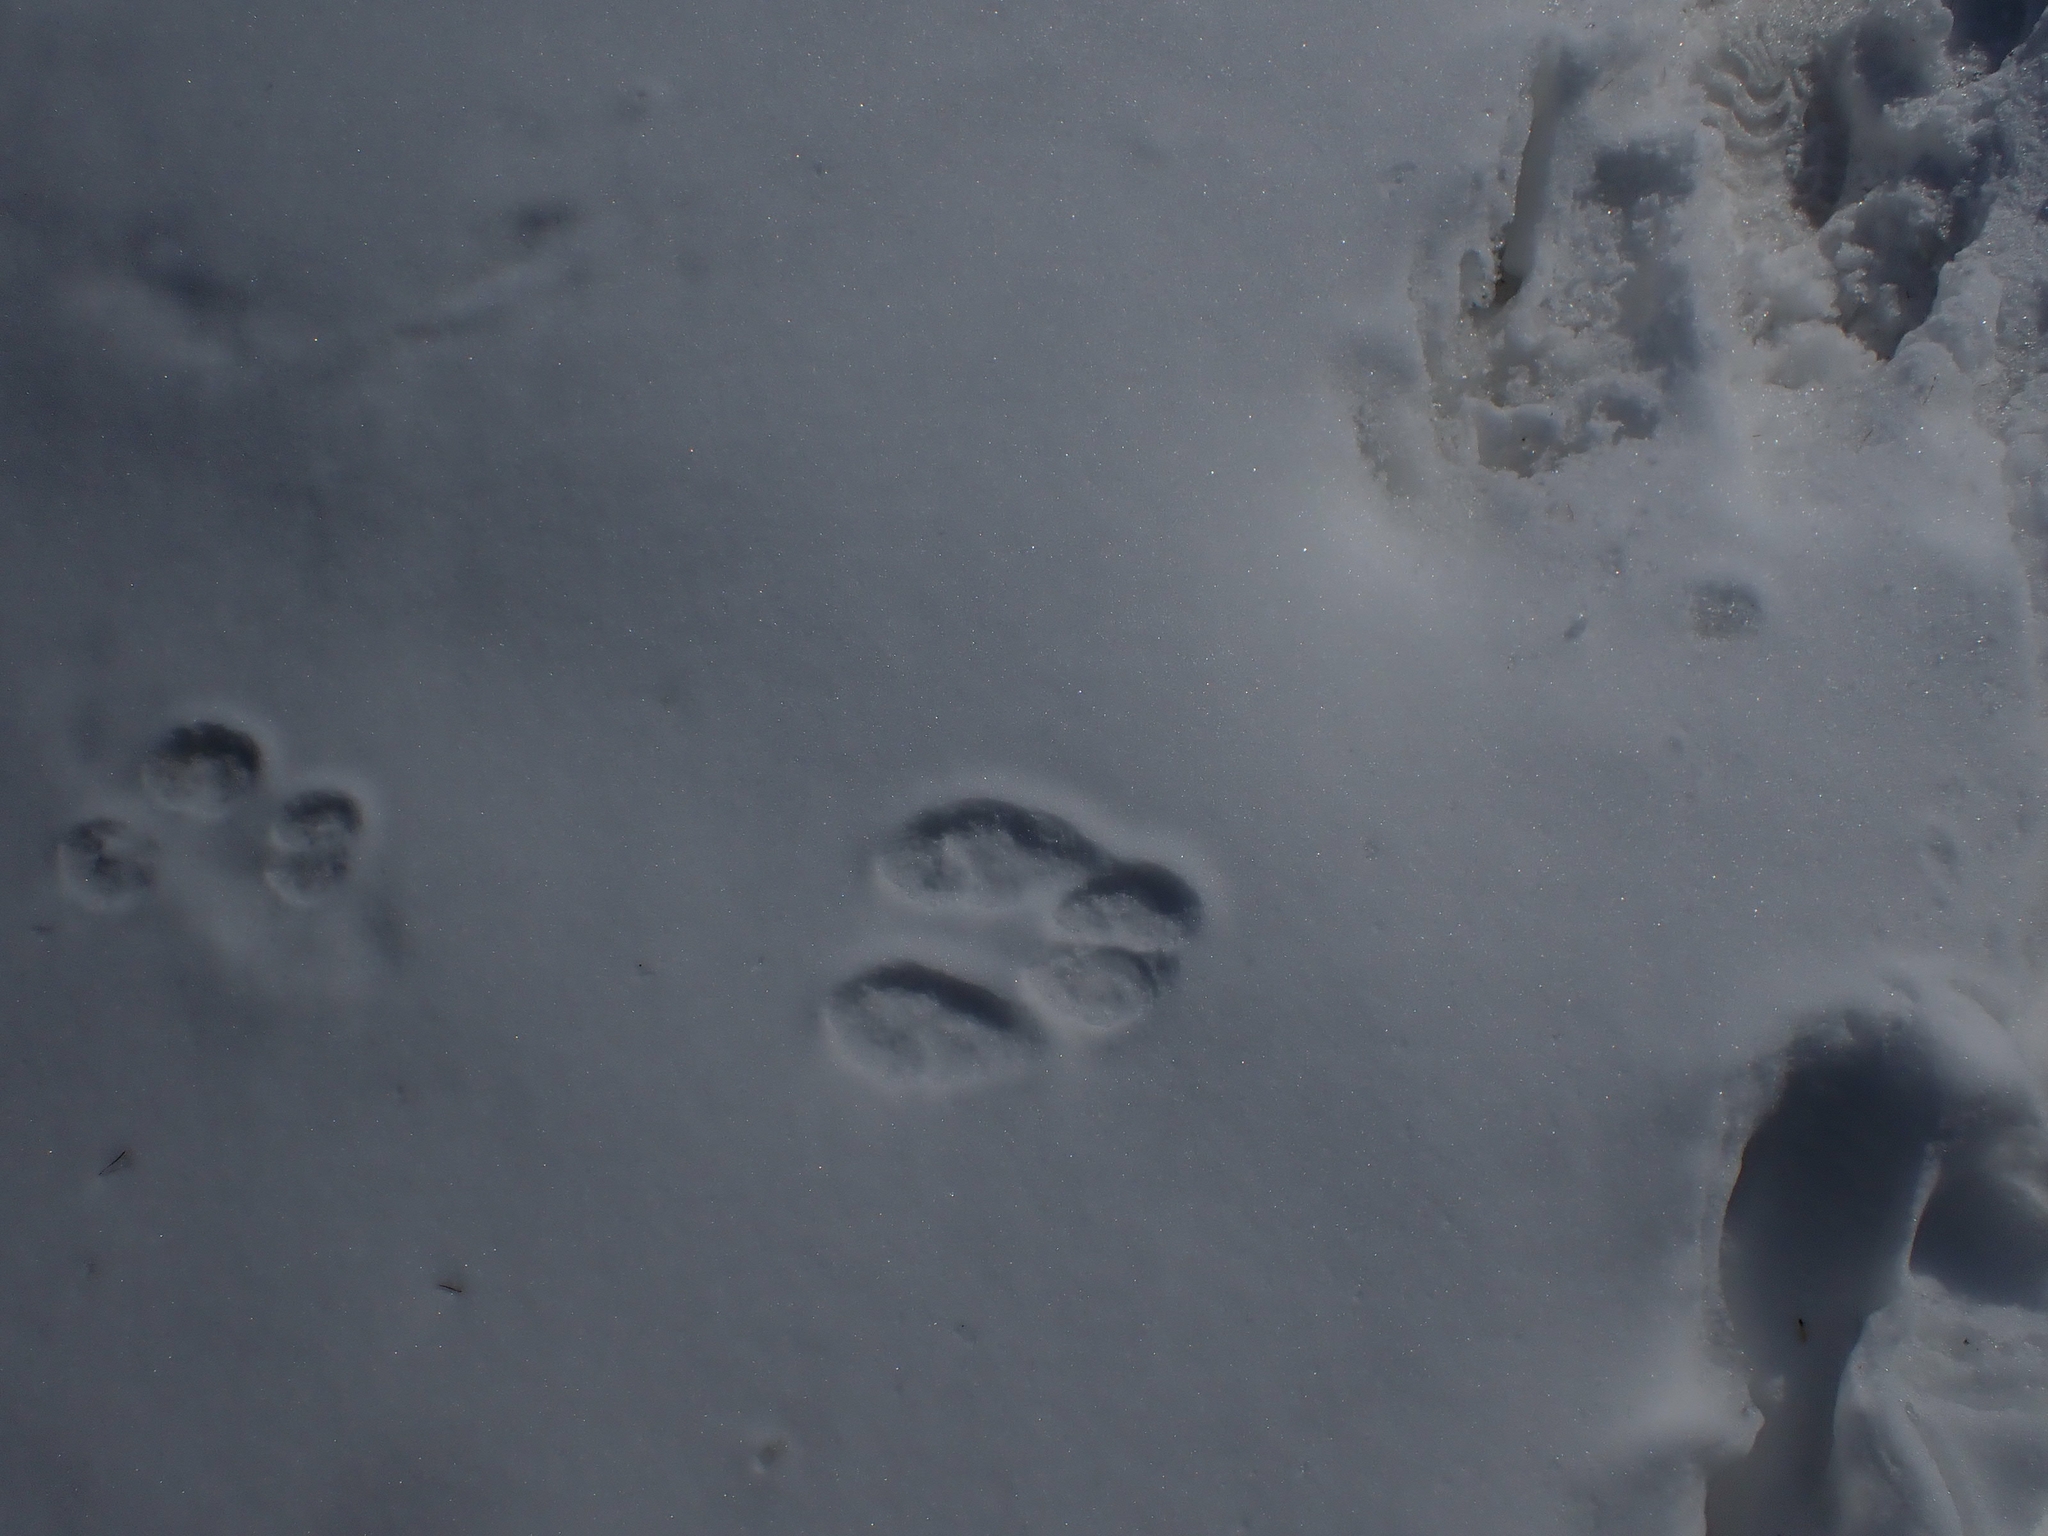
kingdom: Animalia
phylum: Chordata
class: Mammalia
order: Lagomorpha
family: Leporidae
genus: Lepus
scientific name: Lepus americanus
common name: Snowshoe hare
